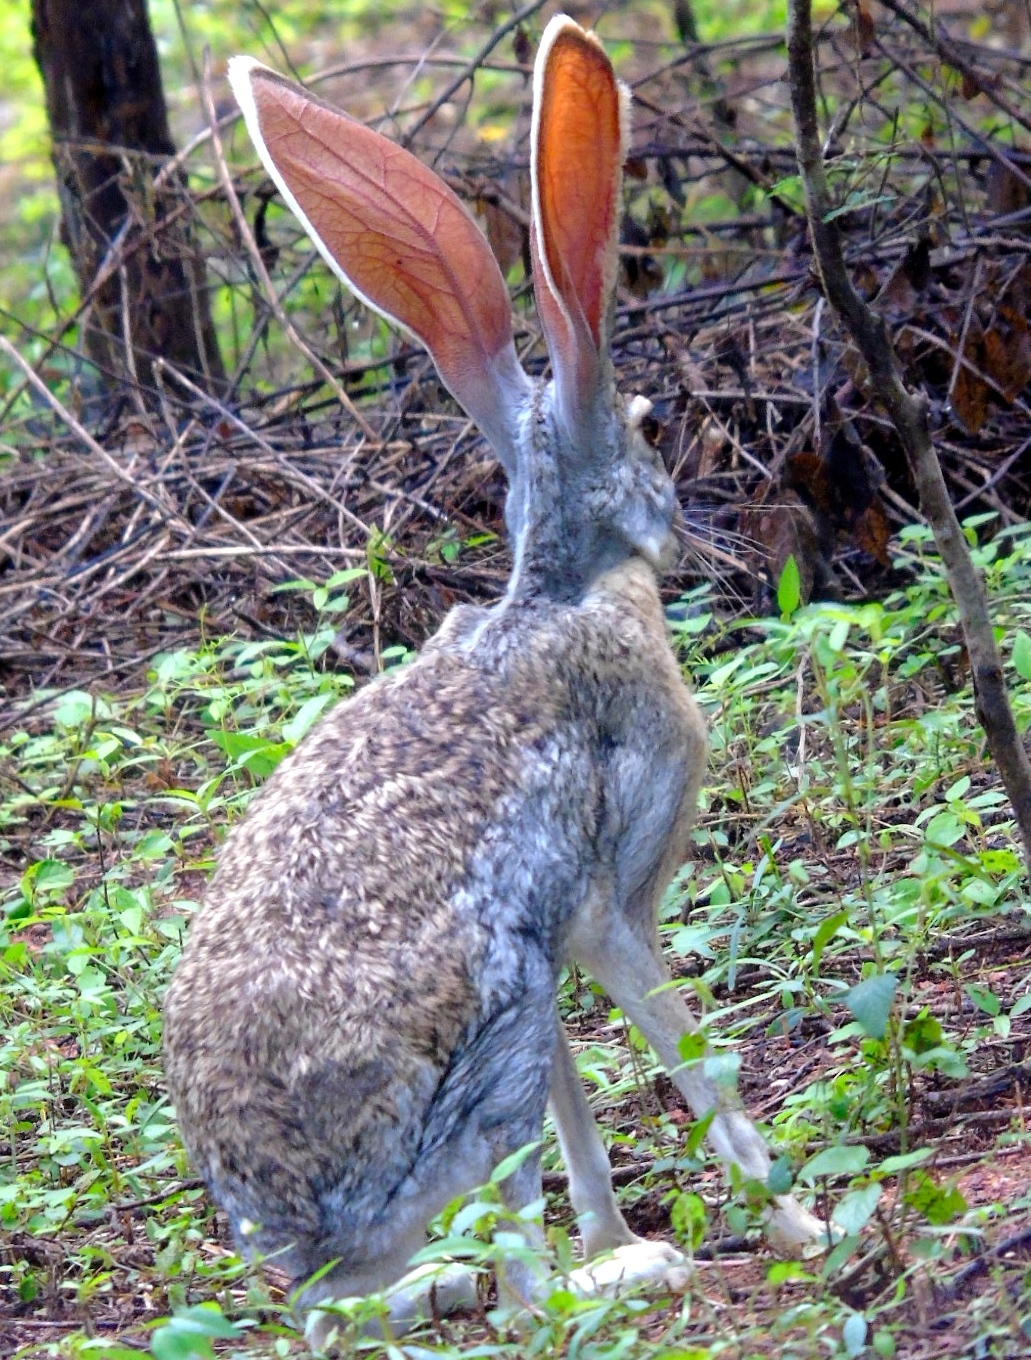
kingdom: Animalia
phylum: Chordata
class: Mammalia
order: Lagomorpha
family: Leporidae
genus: Lepus
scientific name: Lepus alleni
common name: Antelope jackrabbit
